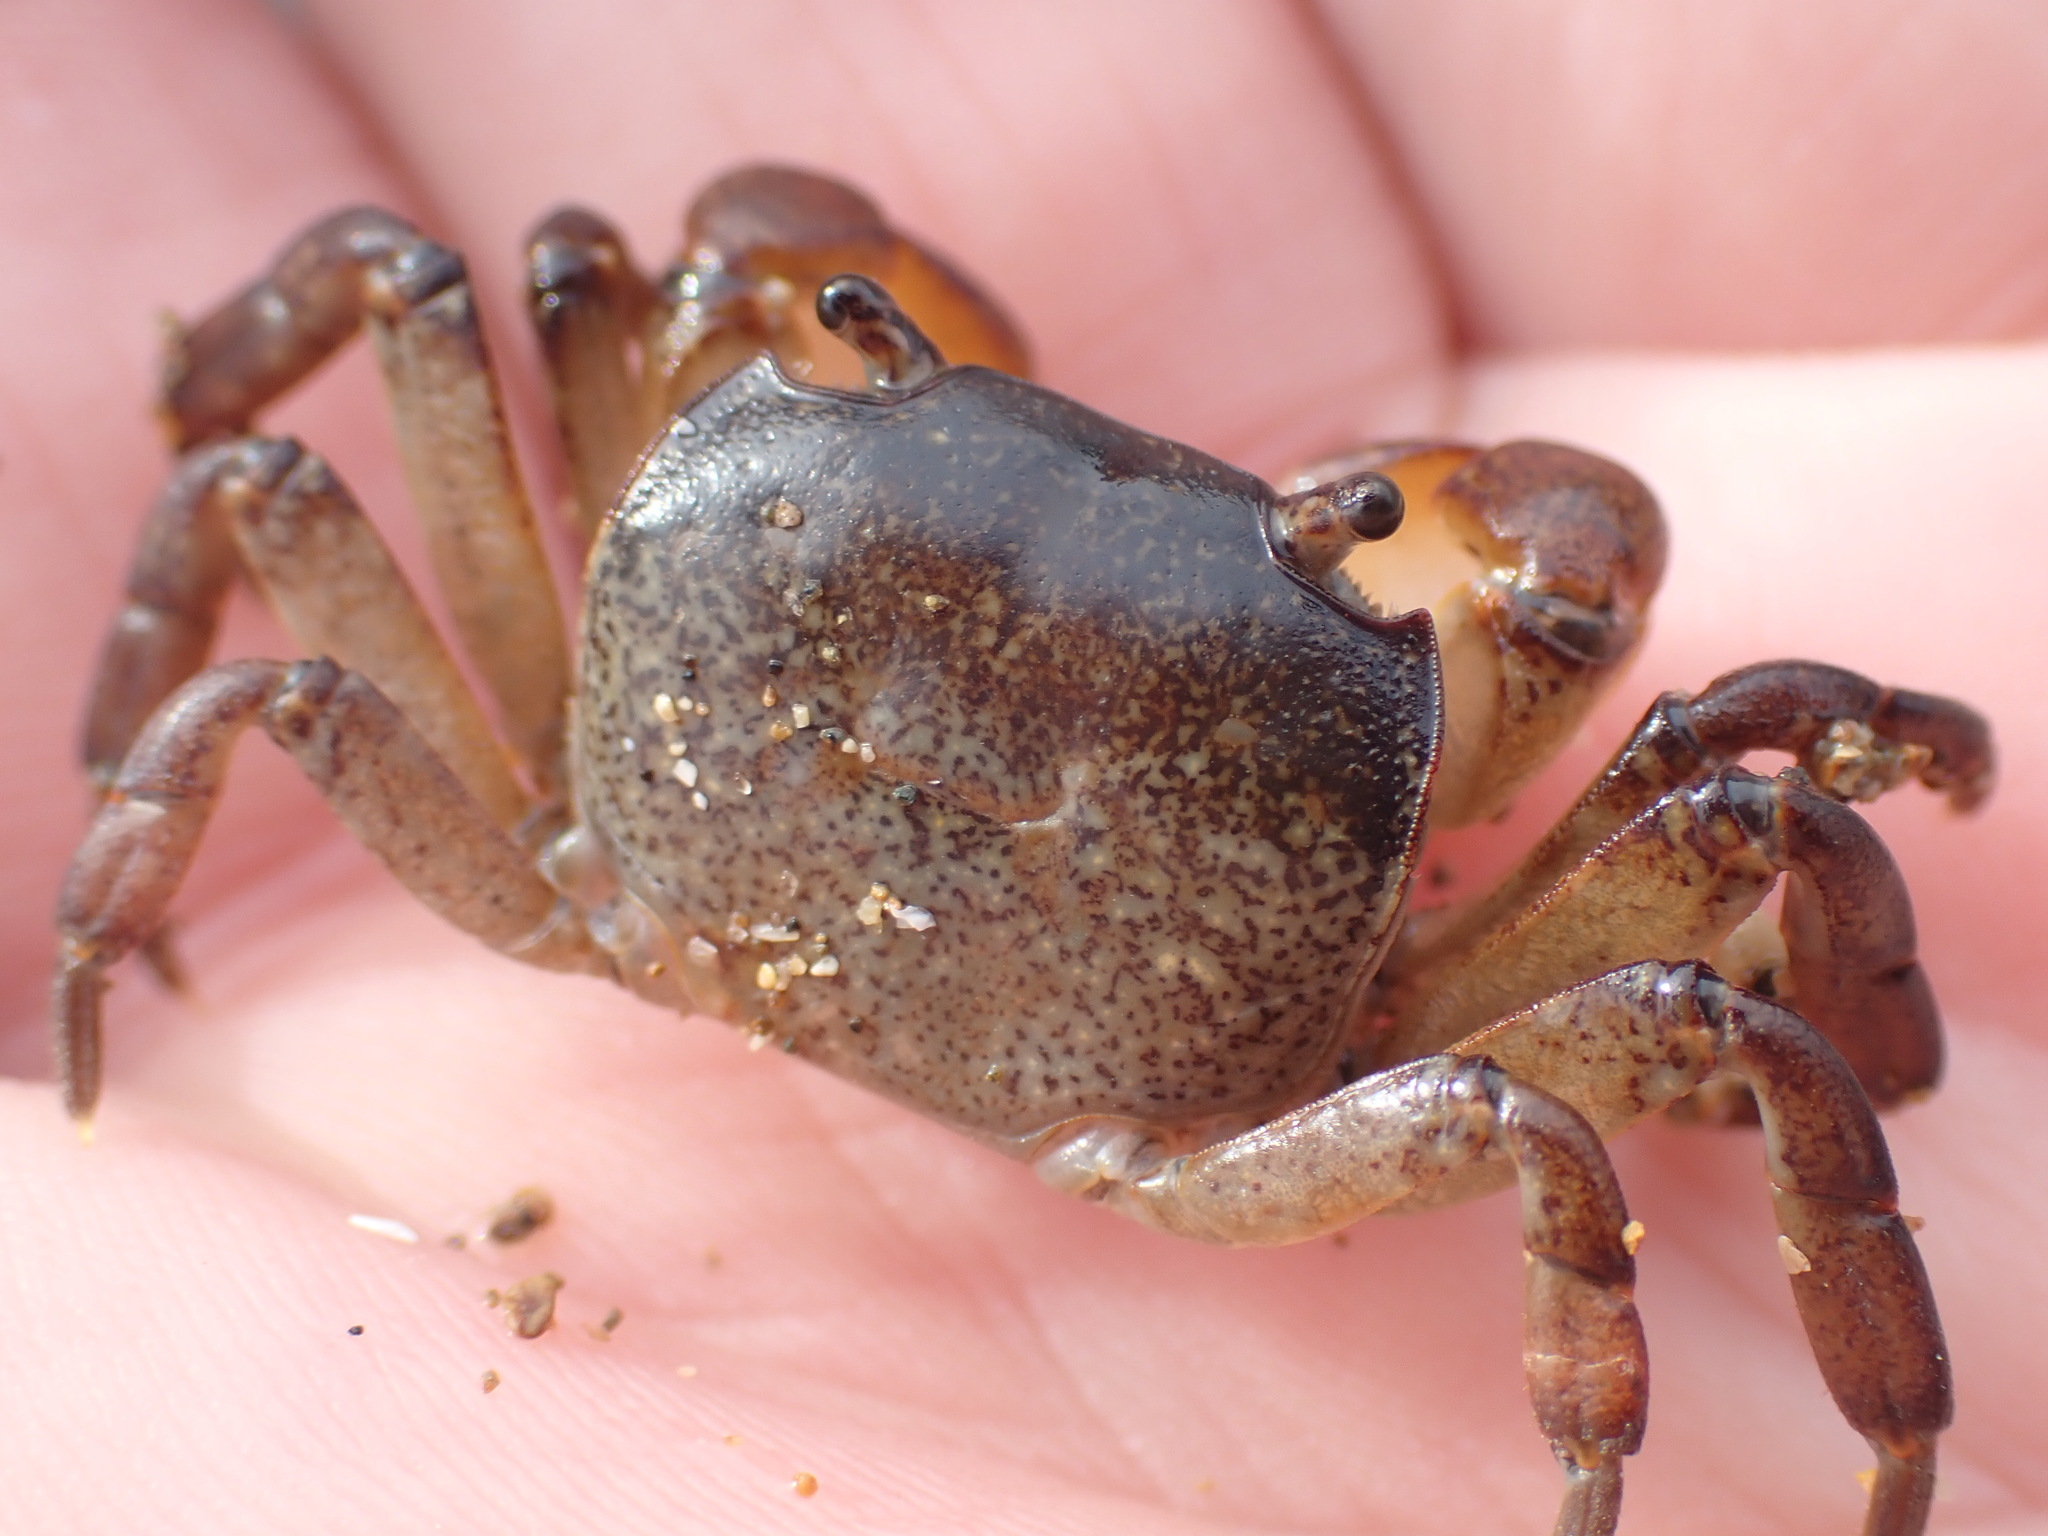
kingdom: Animalia
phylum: Arthropoda
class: Malacostraca
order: Decapoda
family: Varunidae
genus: Cyclograpsus
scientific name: Cyclograpsus lavauxi
